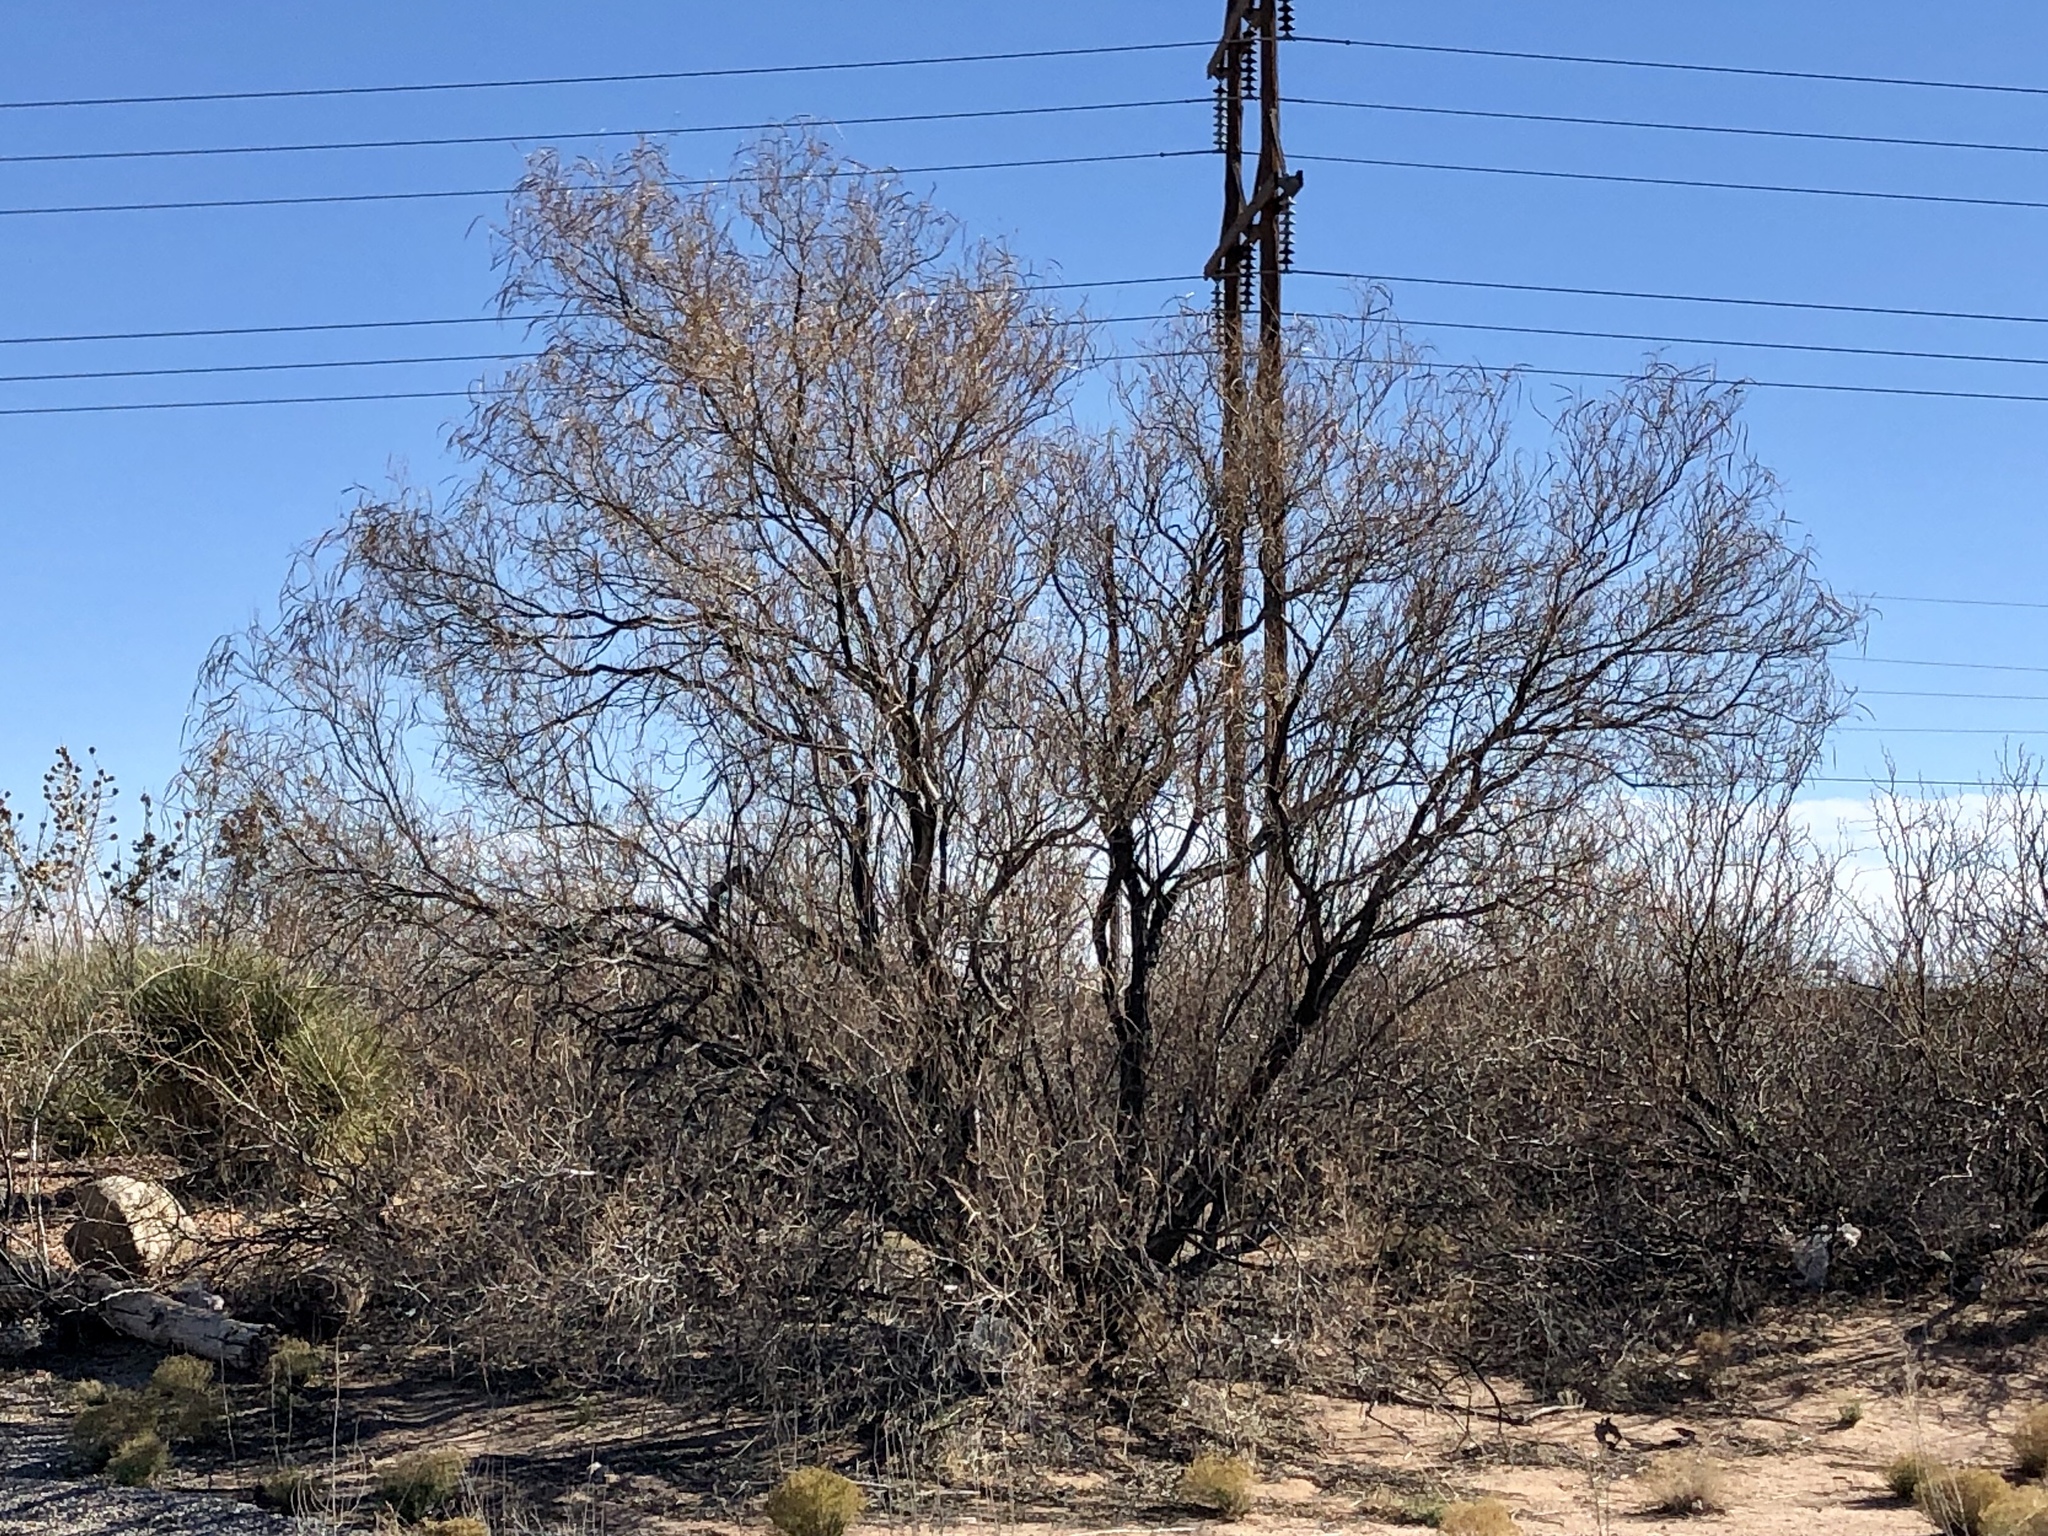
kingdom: Plantae
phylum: Tracheophyta
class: Magnoliopsida
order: Lamiales
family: Bignoniaceae
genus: Chilopsis
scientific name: Chilopsis linearis
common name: Desert-willow
